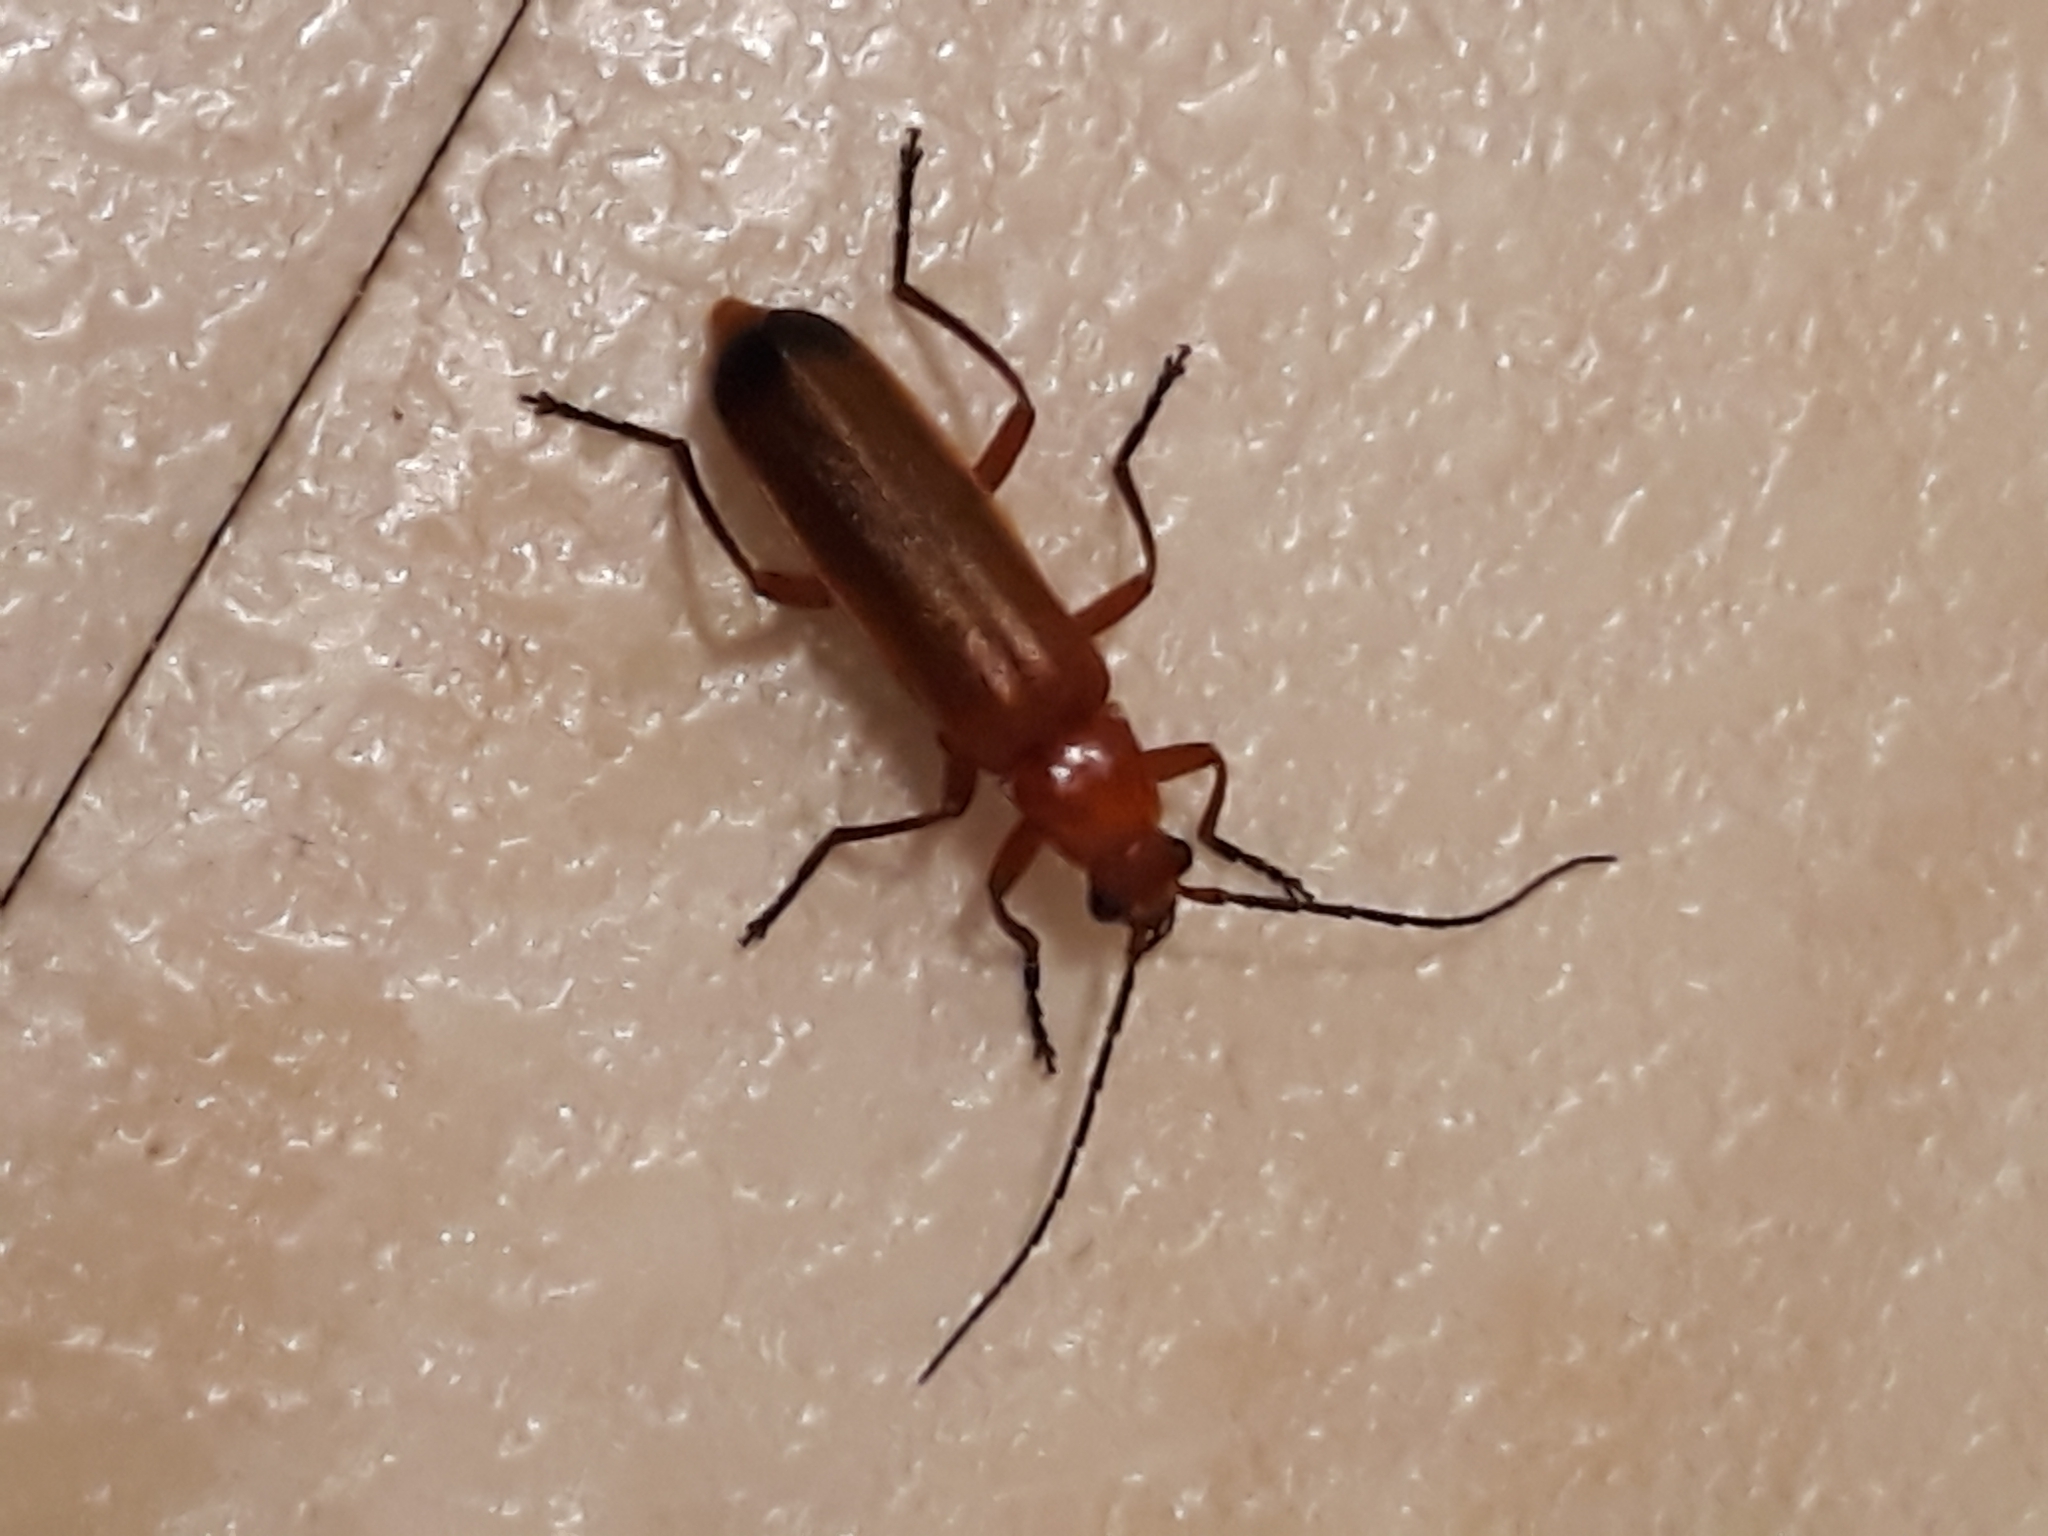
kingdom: Animalia
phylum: Arthropoda
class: Insecta
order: Coleoptera
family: Cantharidae
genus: Rhagonycha
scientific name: Rhagonycha fulva
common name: Common red soldier beetle
